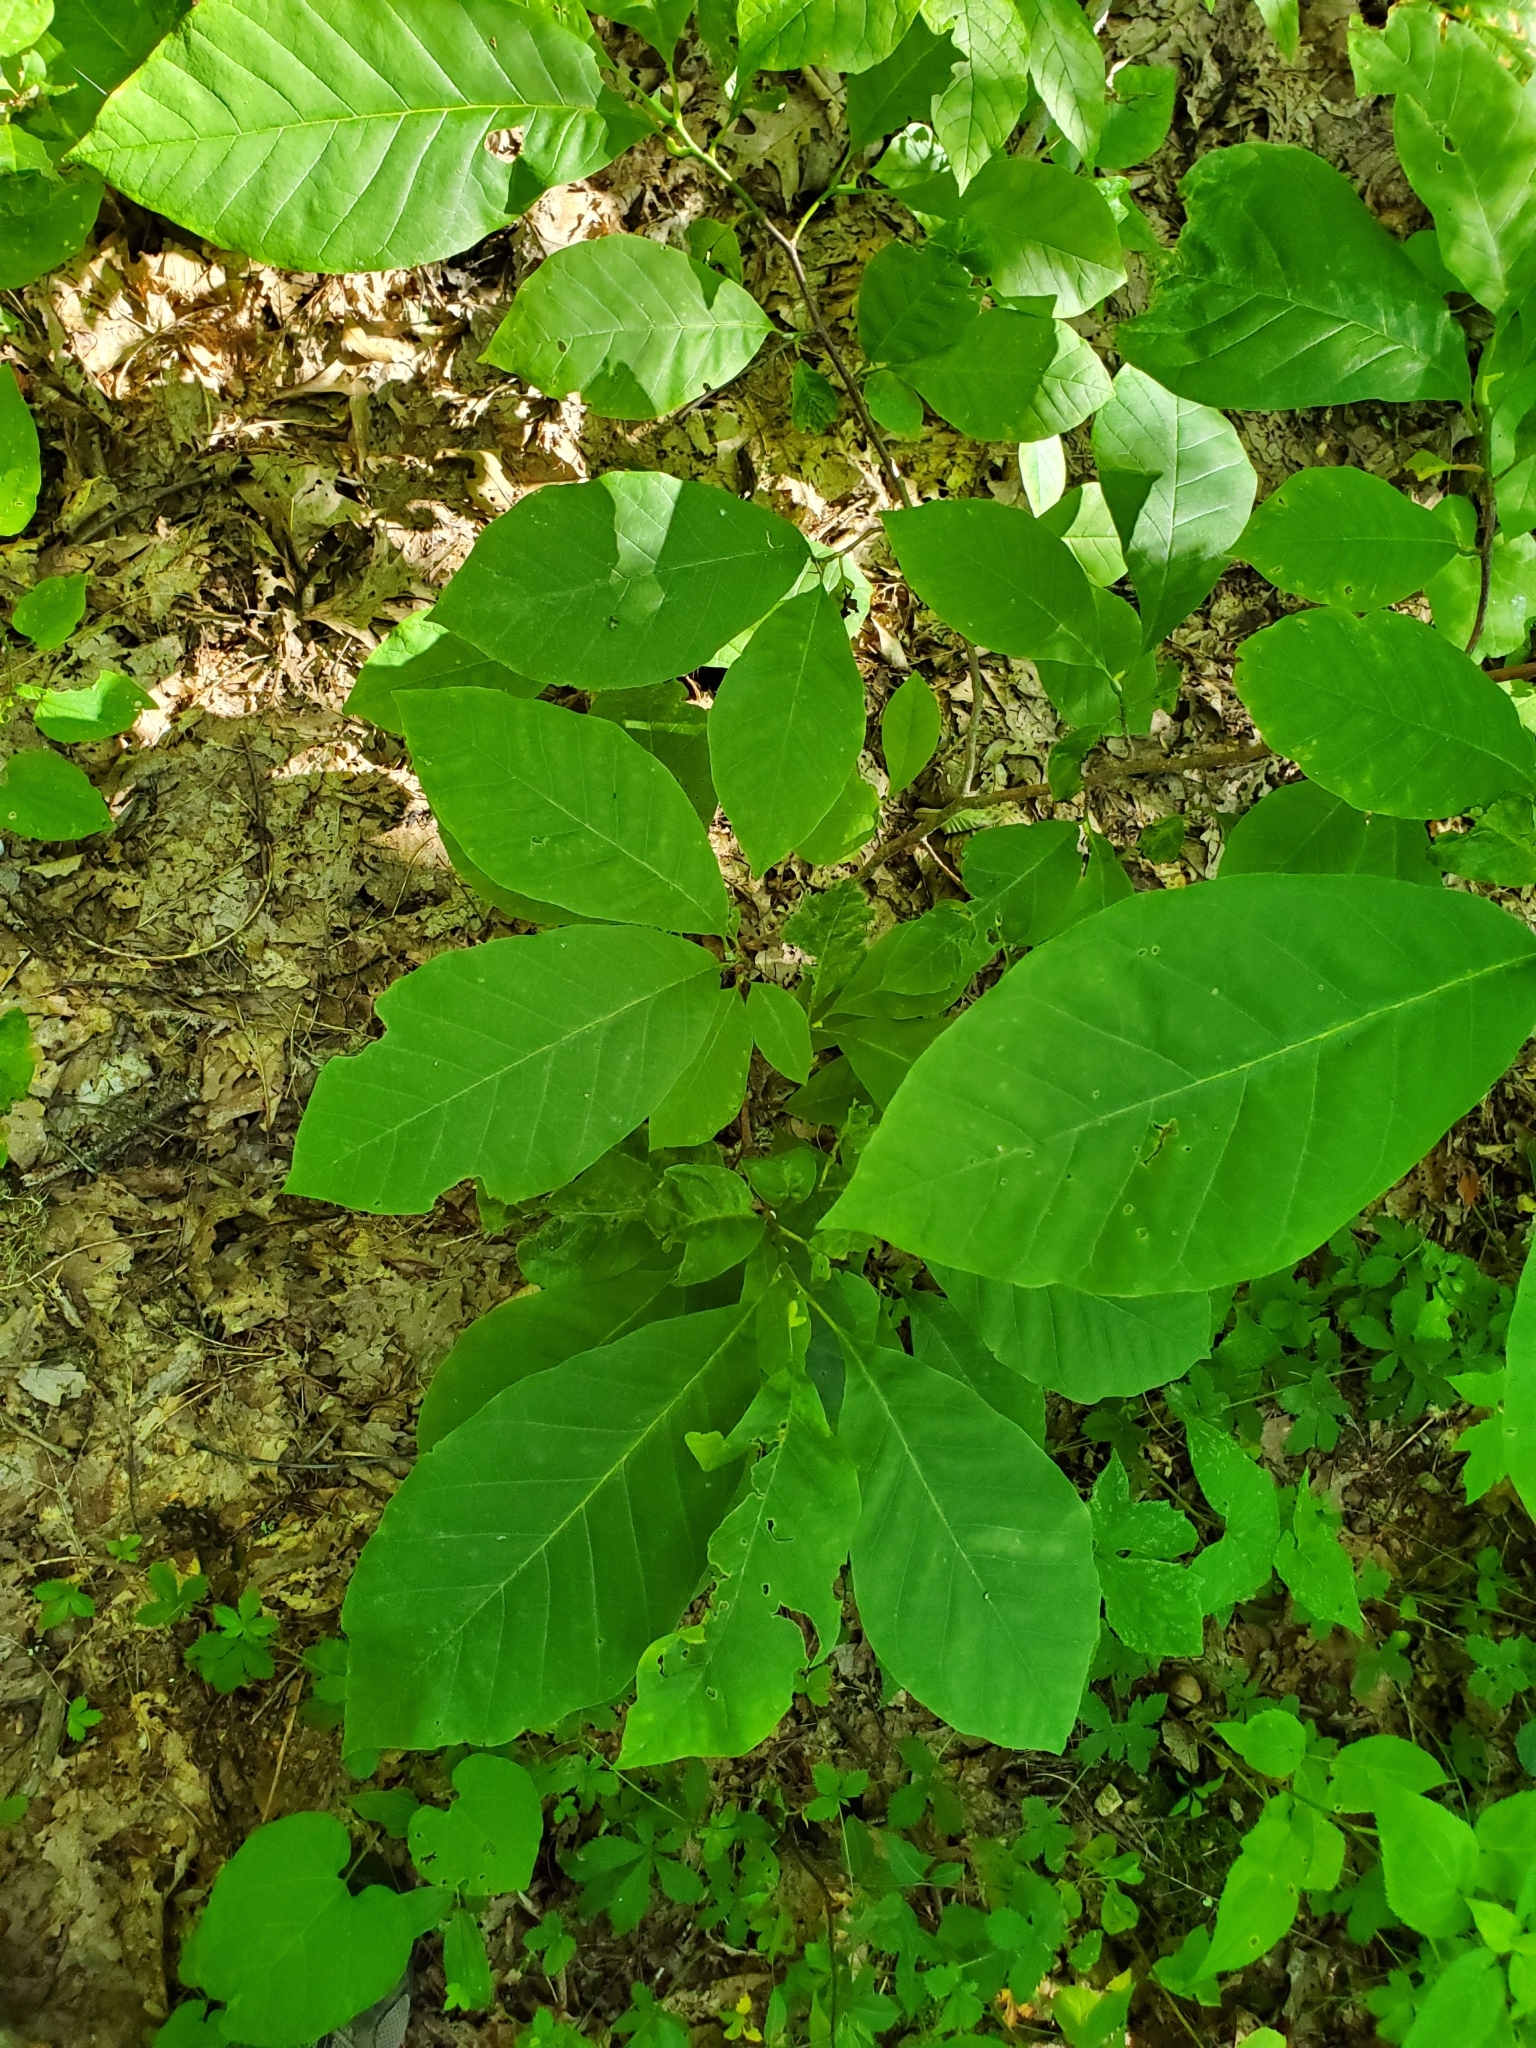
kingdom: Plantae
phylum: Tracheophyta
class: Magnoliopsida
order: Magnoliales
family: Annonaceae
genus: Asimina
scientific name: Asimina triloba
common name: Dog-banana
